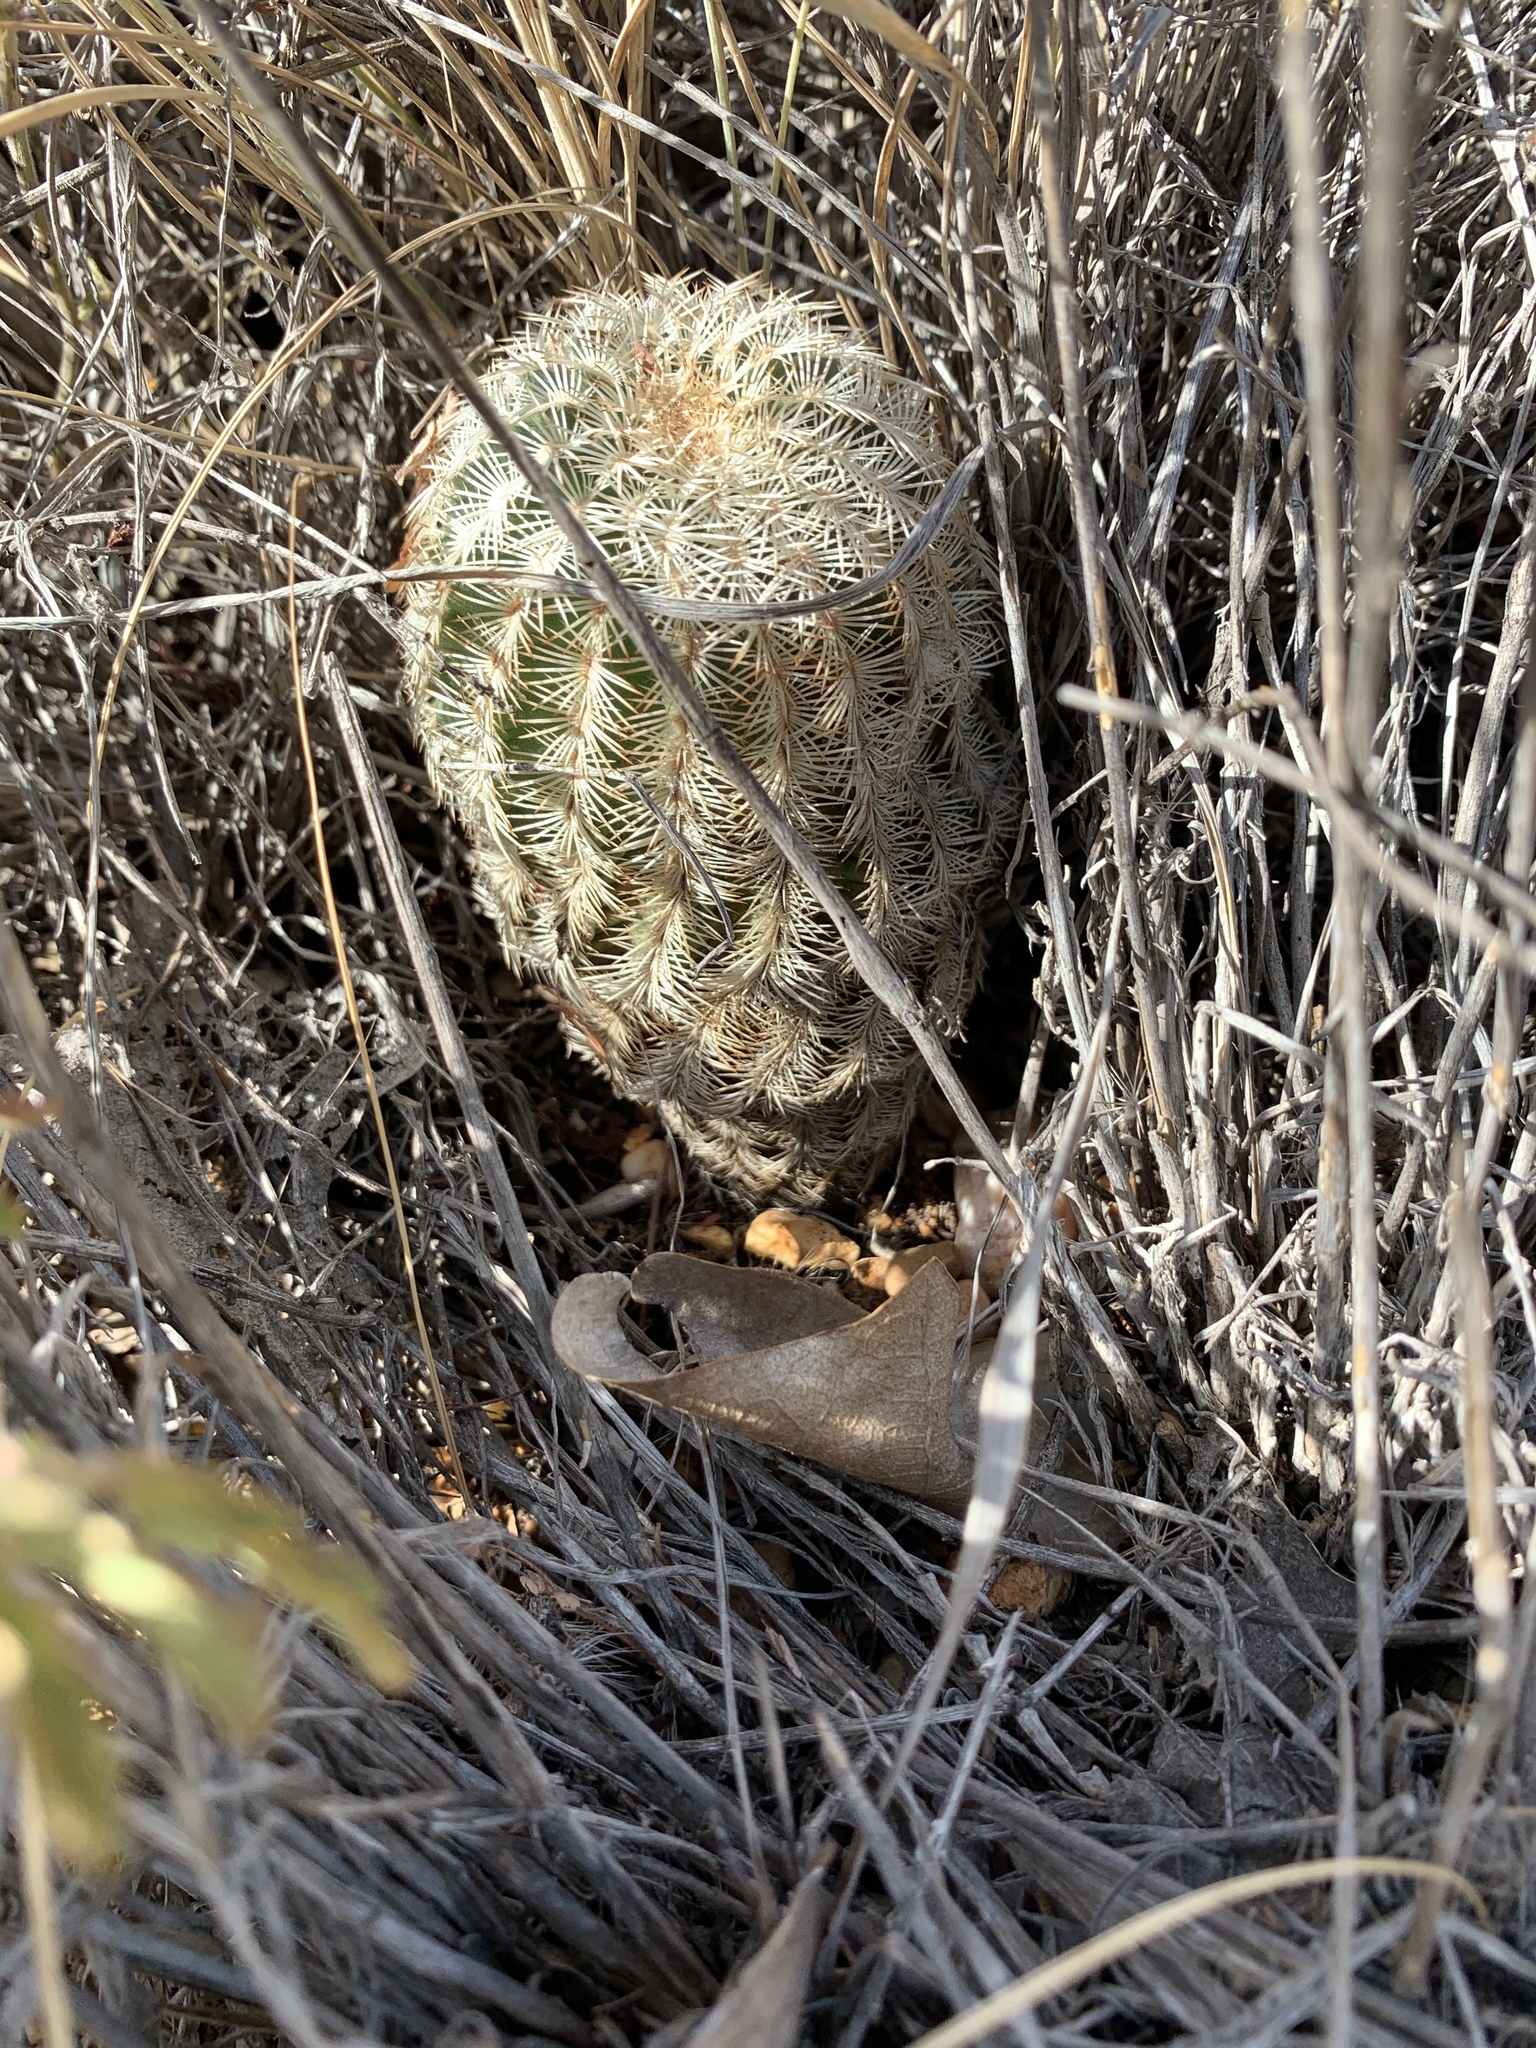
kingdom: Plantae
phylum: Tracheophyta
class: Magnoliopsida
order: Caryophyllales
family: Cactaceae
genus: Echinocereus
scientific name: Echinocereus reichenbachii
